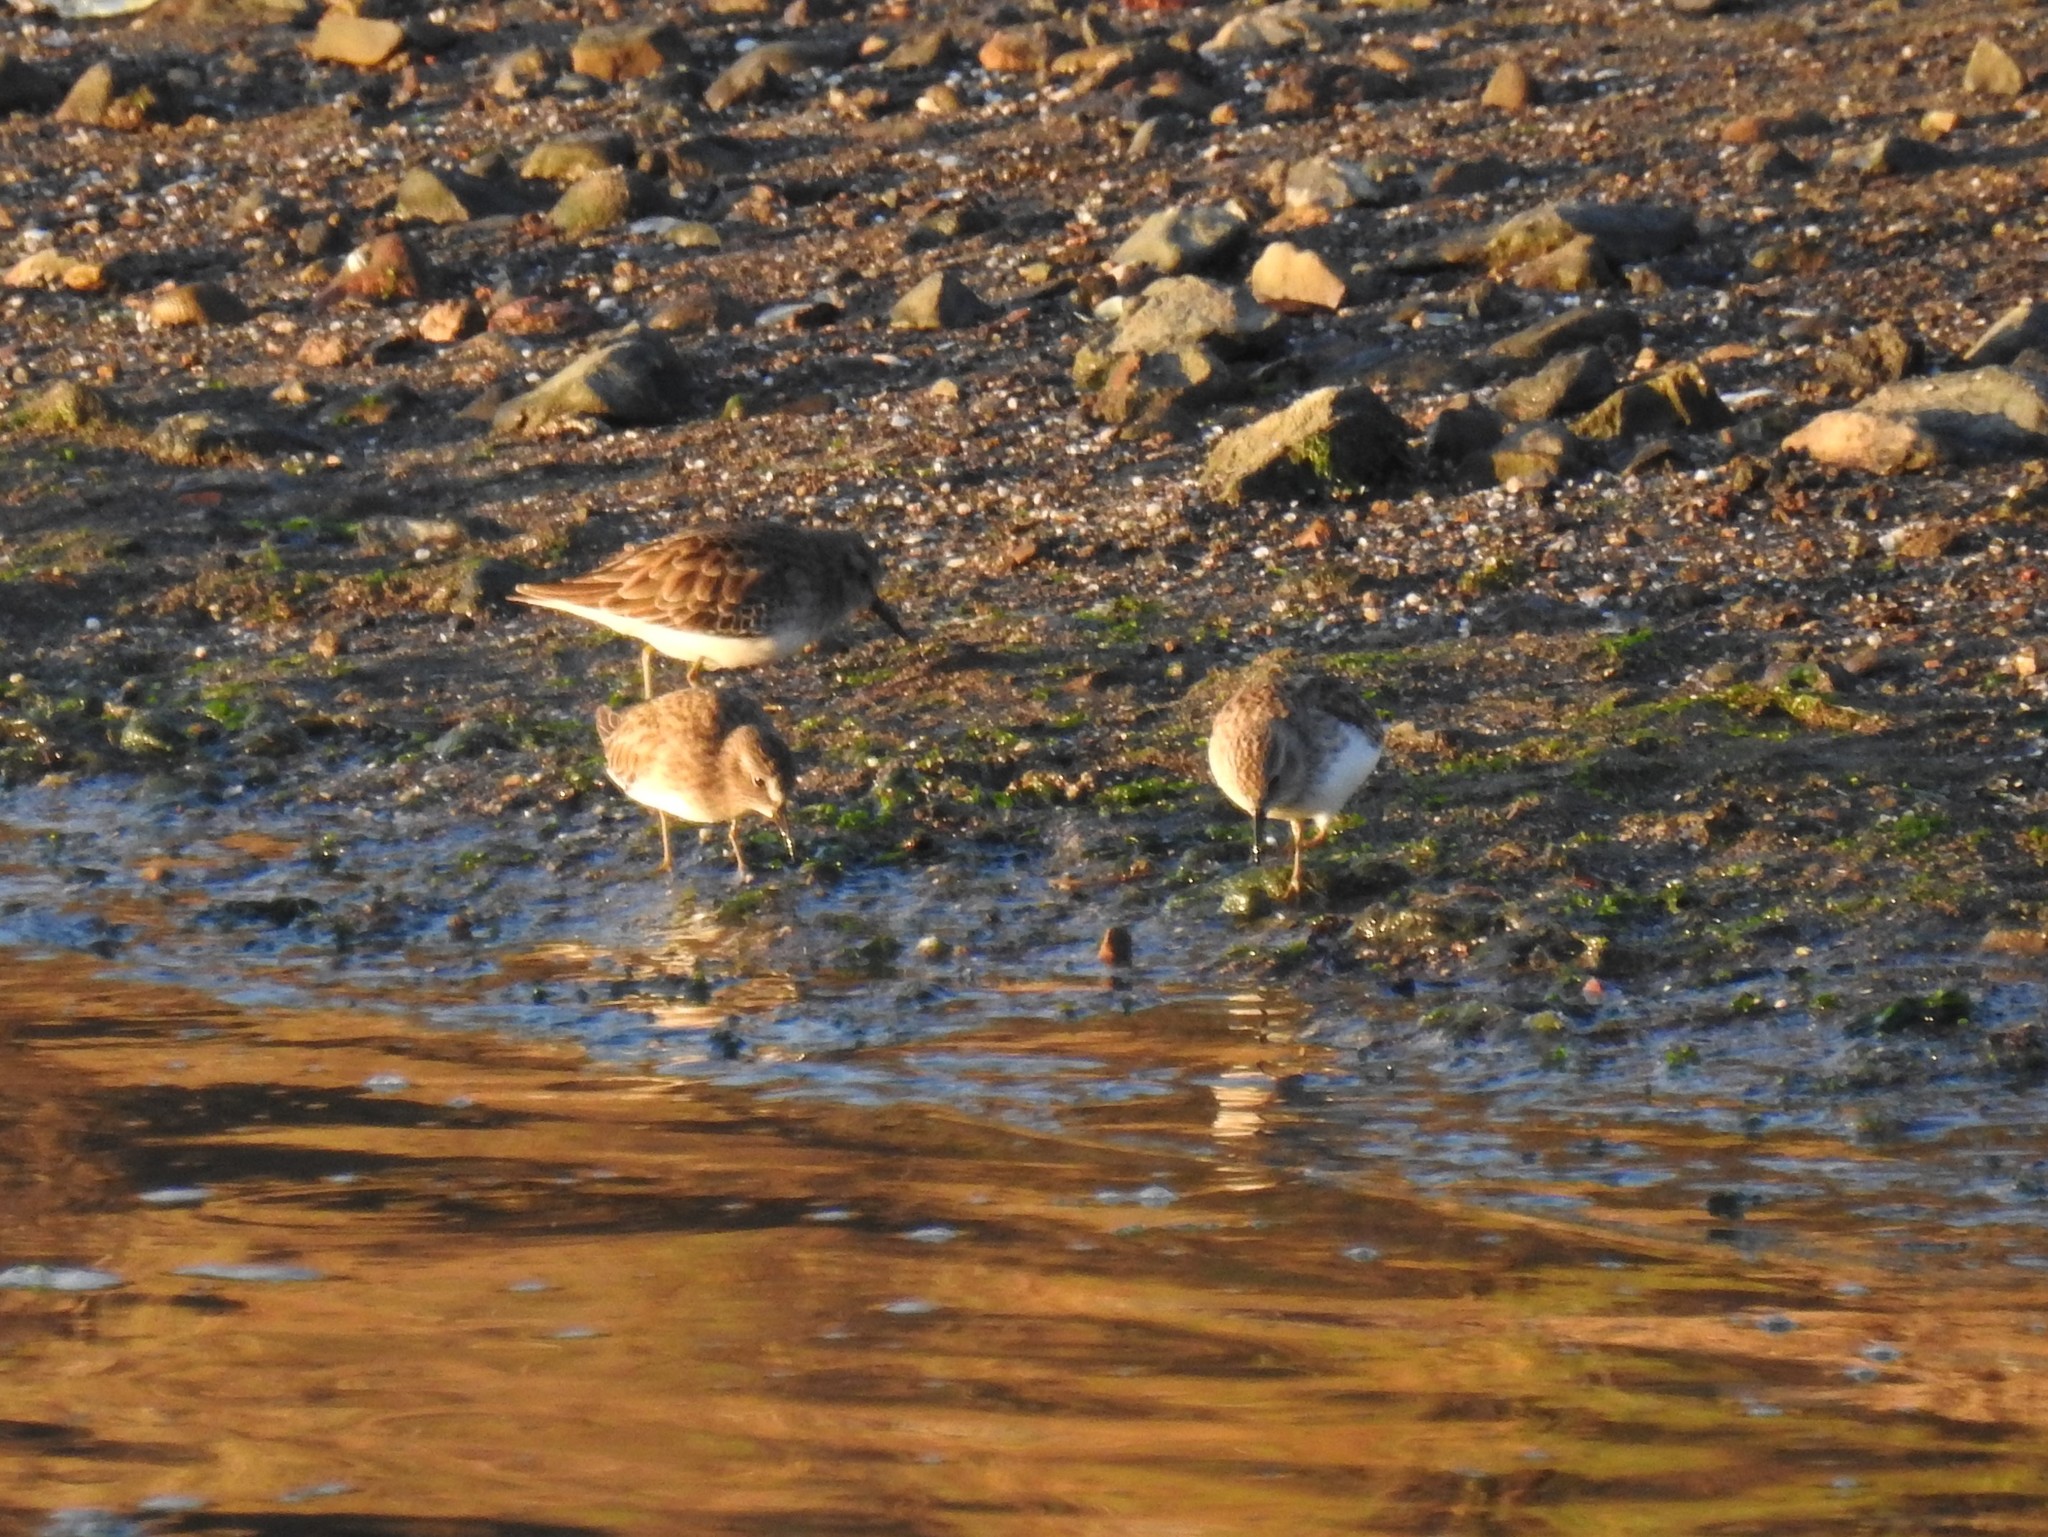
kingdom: Animalia
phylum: Chordata
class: Aves
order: Charadriiformes
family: Scolopacidae
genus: Calidris
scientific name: Calidris minutilla
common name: Least sandpiper
